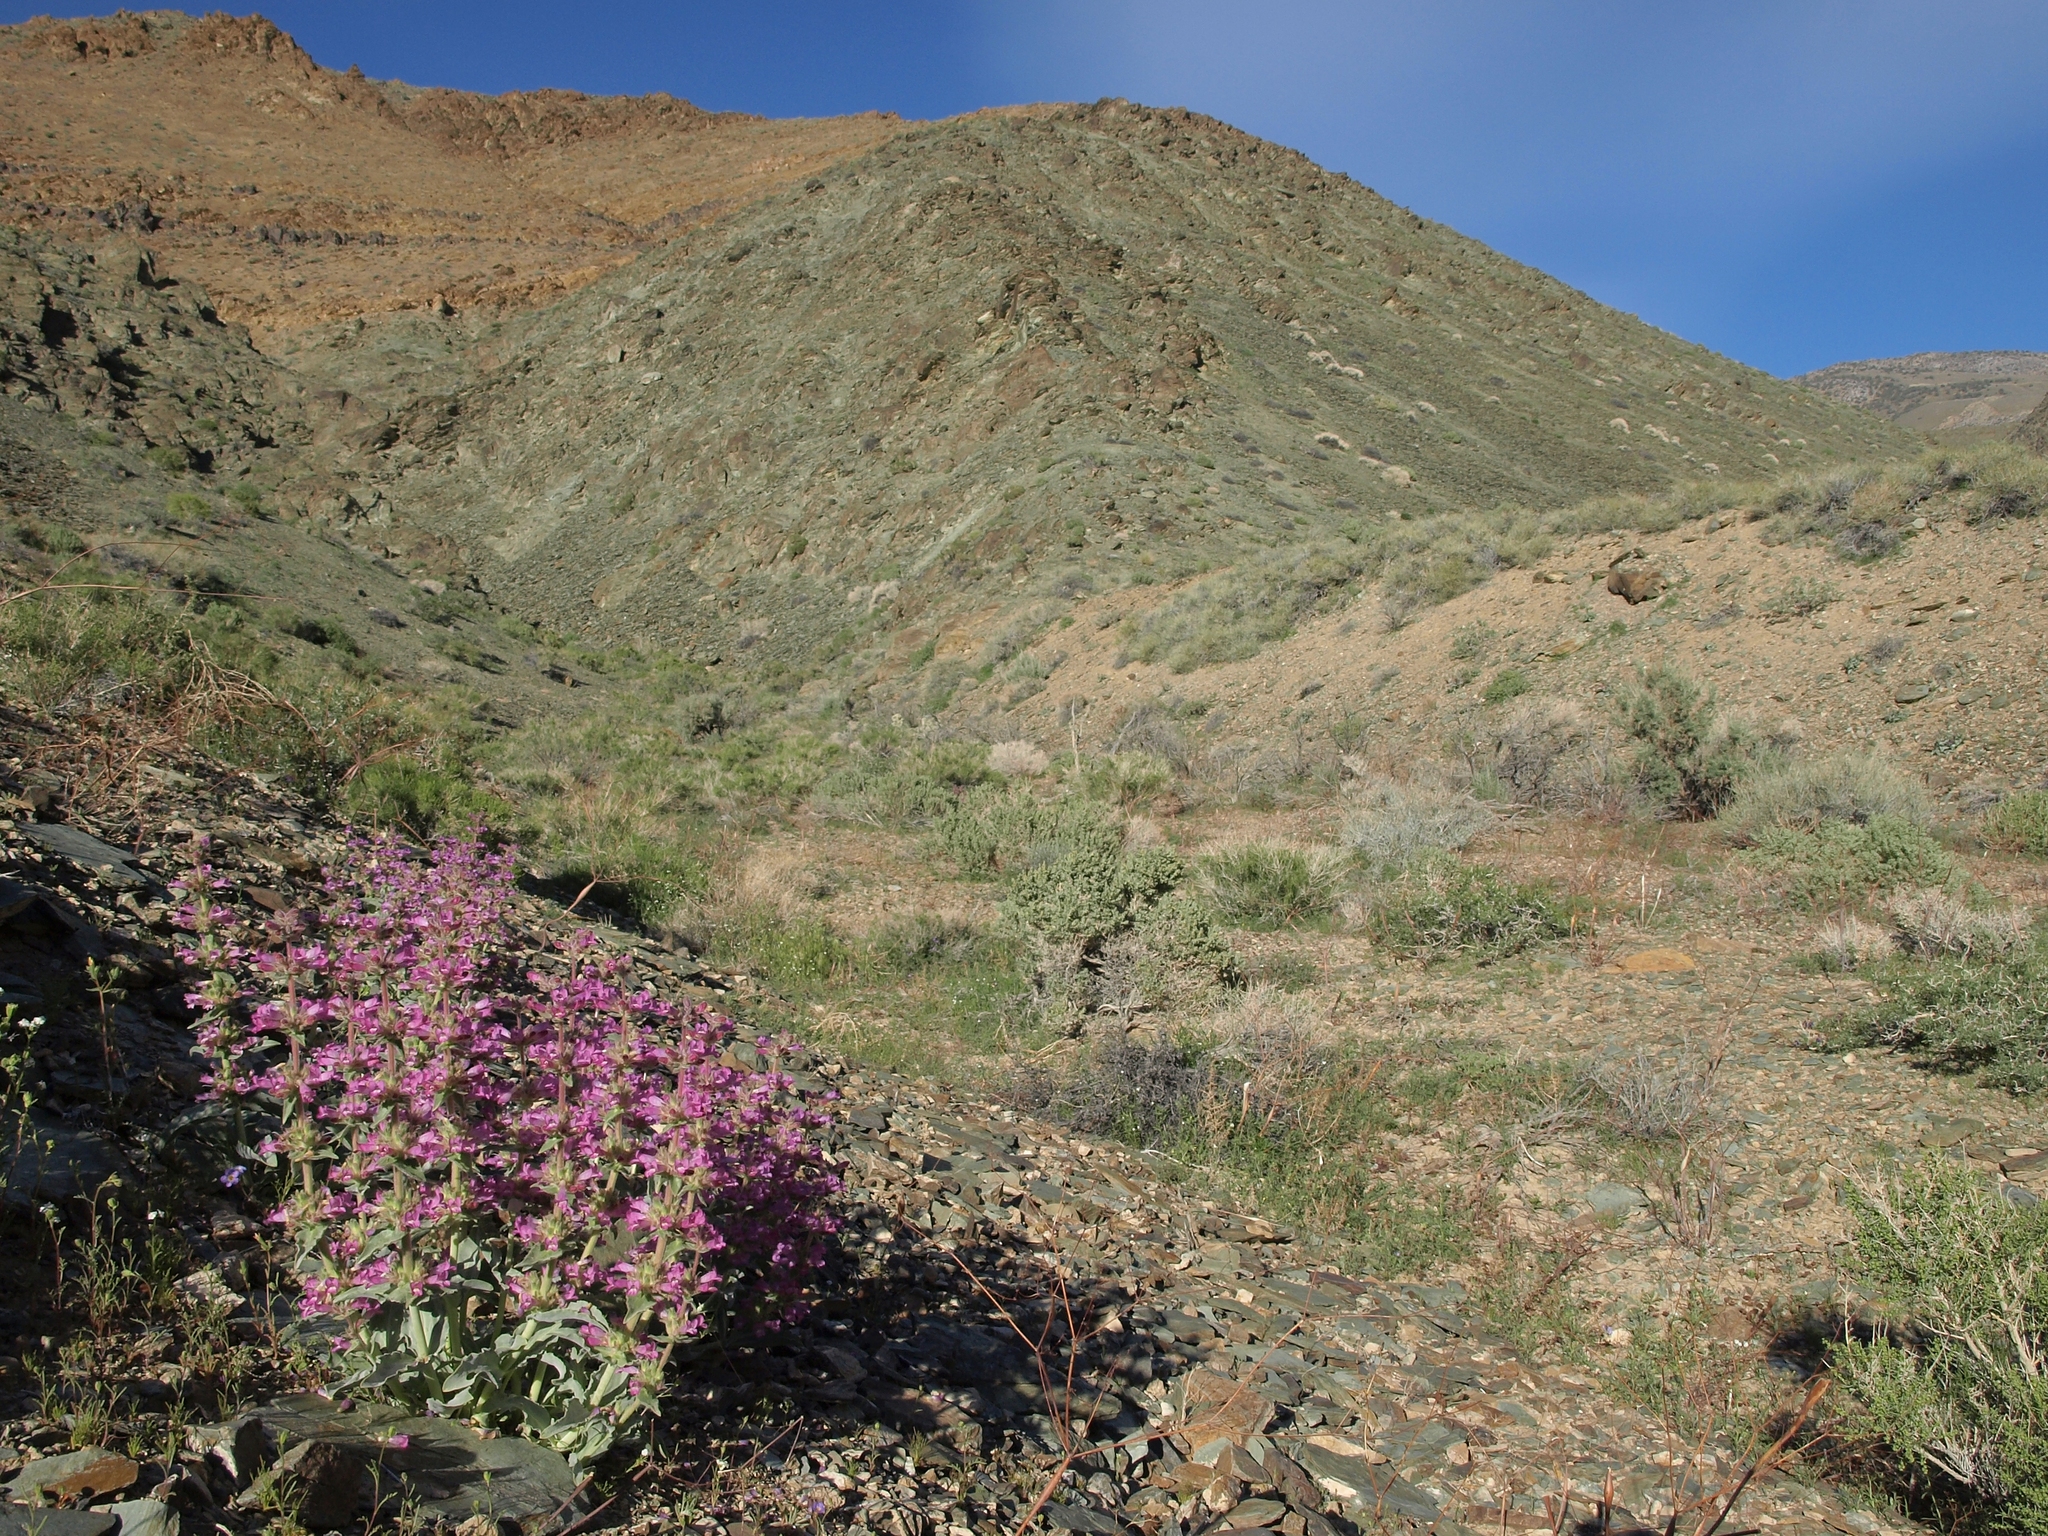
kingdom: Plantae
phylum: Tracheophyta
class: Magnoliopsida
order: Lamiales
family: Plantaginaceae
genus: Penstemon
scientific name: Penstemon monoensis
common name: Mono penstemon
